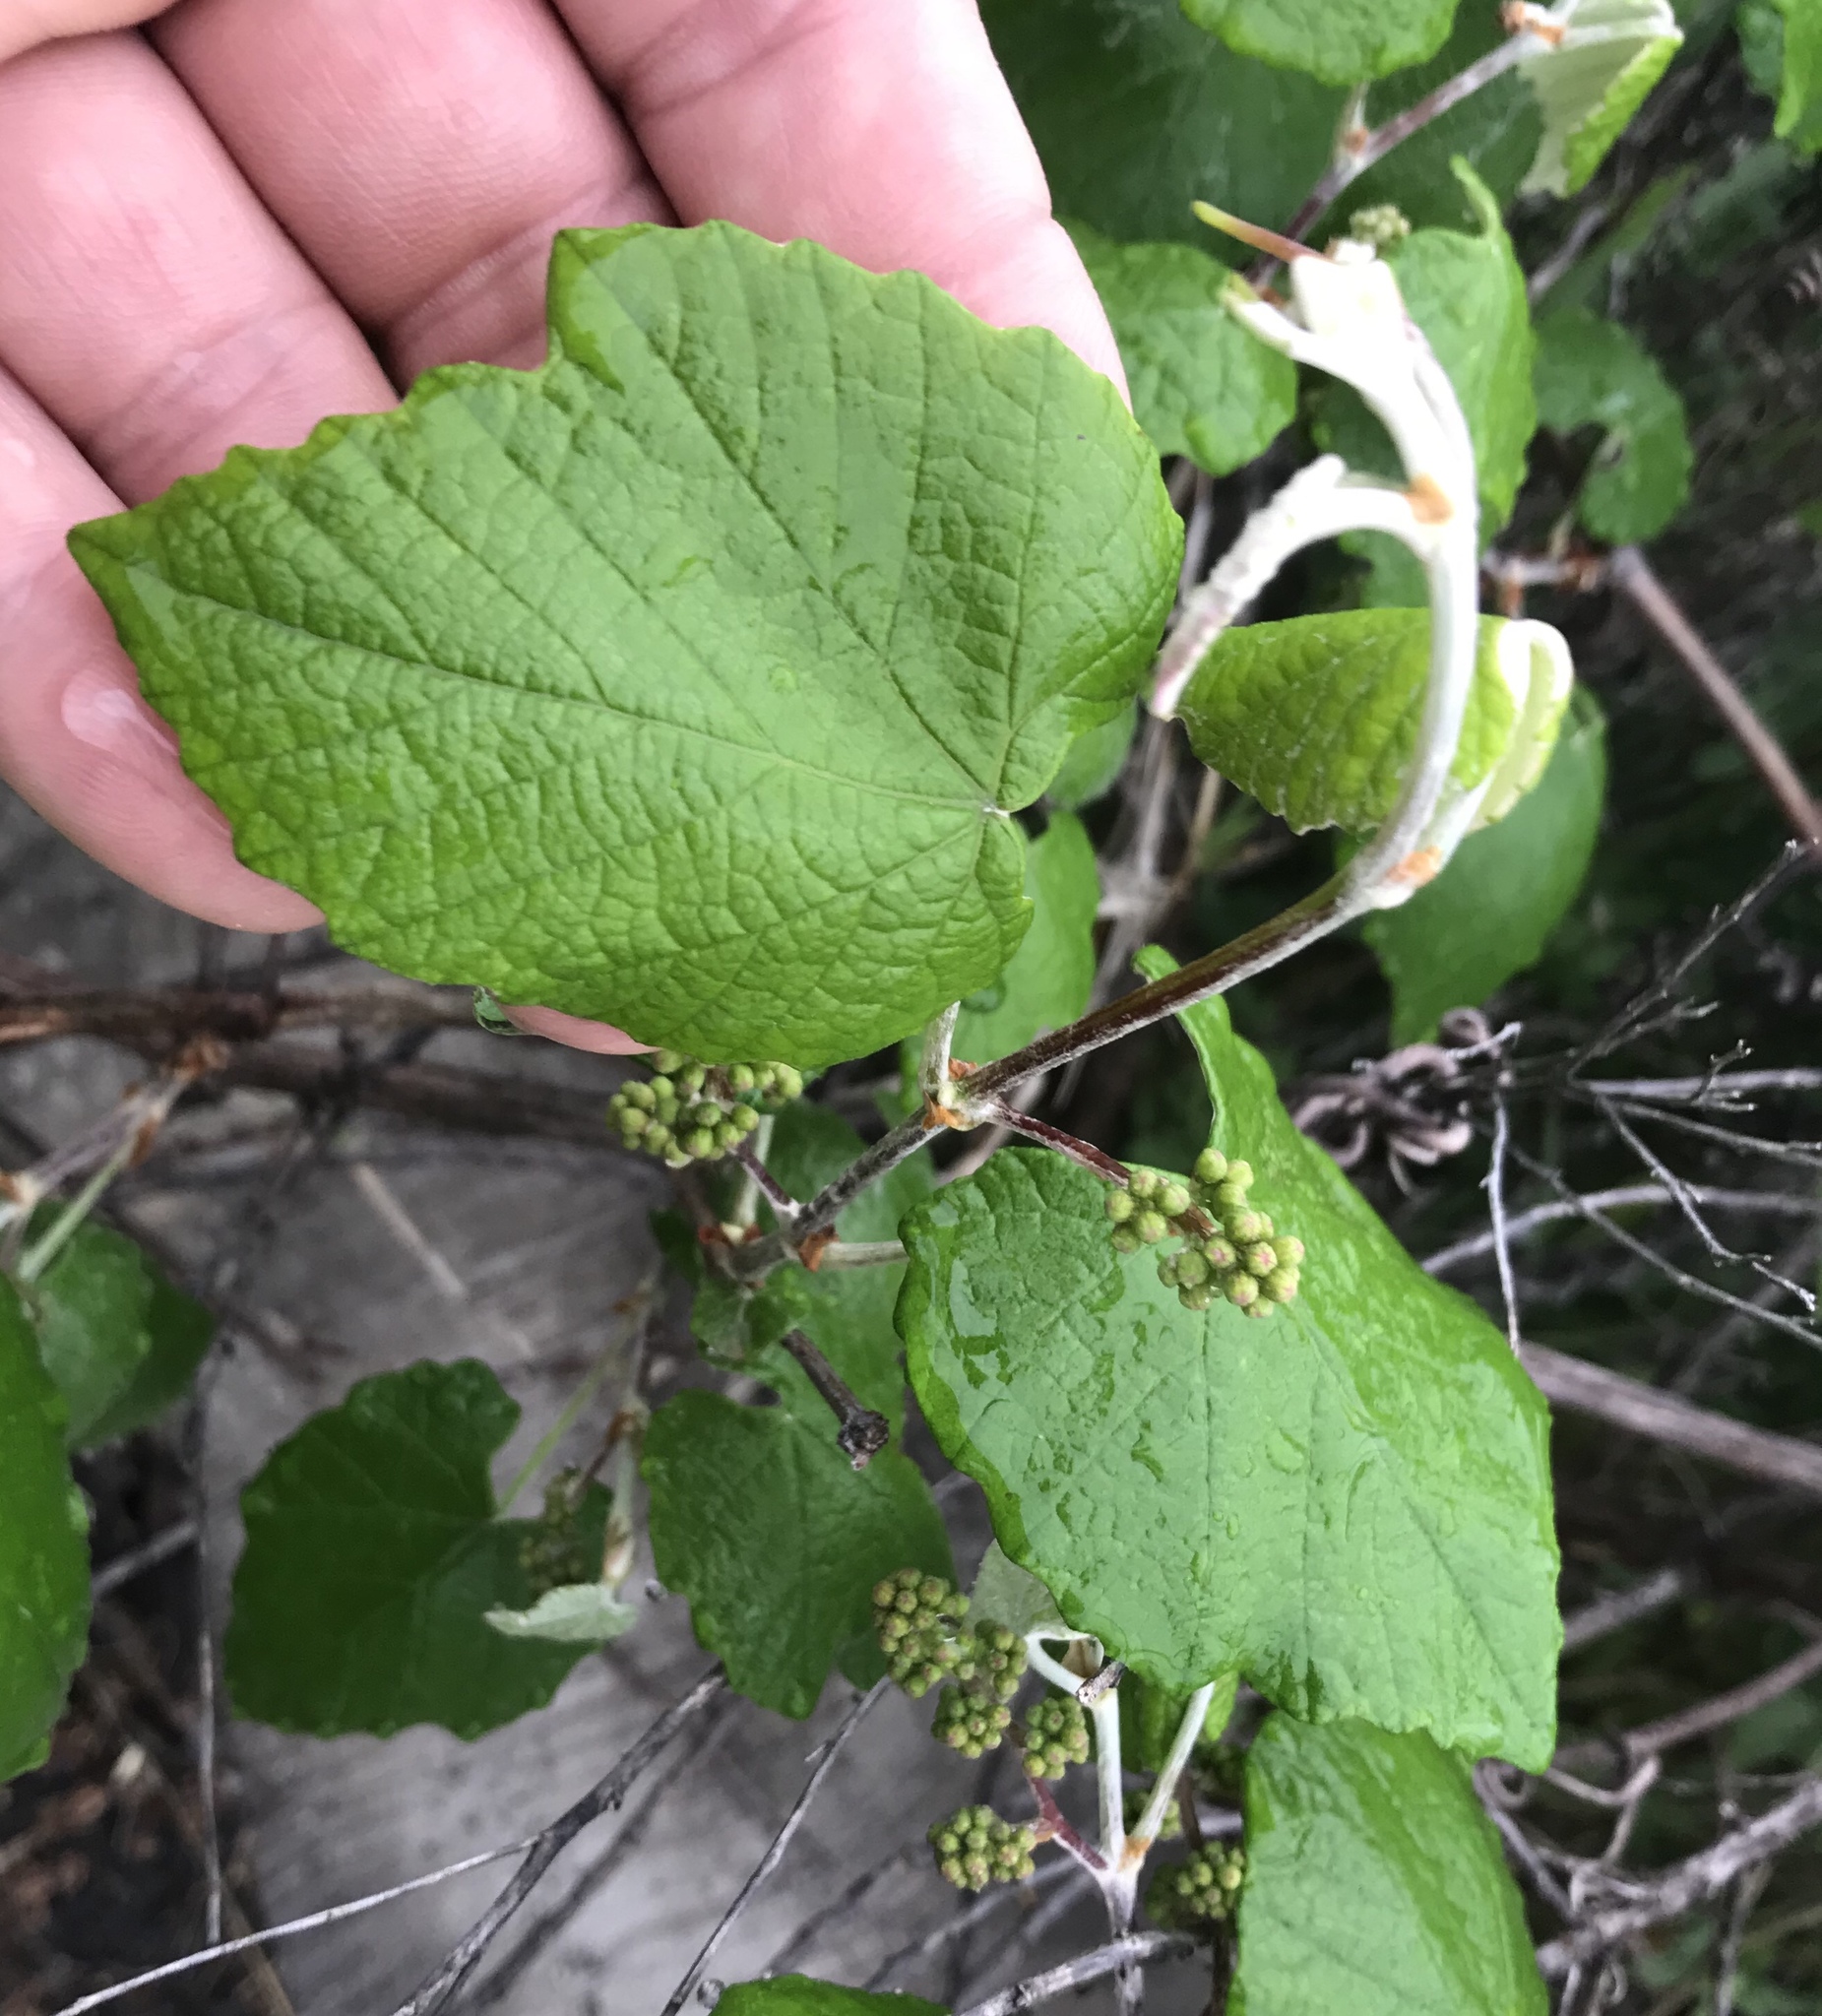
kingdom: Plantae
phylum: Tracheophyta
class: Magnoliopsida
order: Vitales
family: Vitaceae
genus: Vitis
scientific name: Vitis mustangensis
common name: Mustang grape
